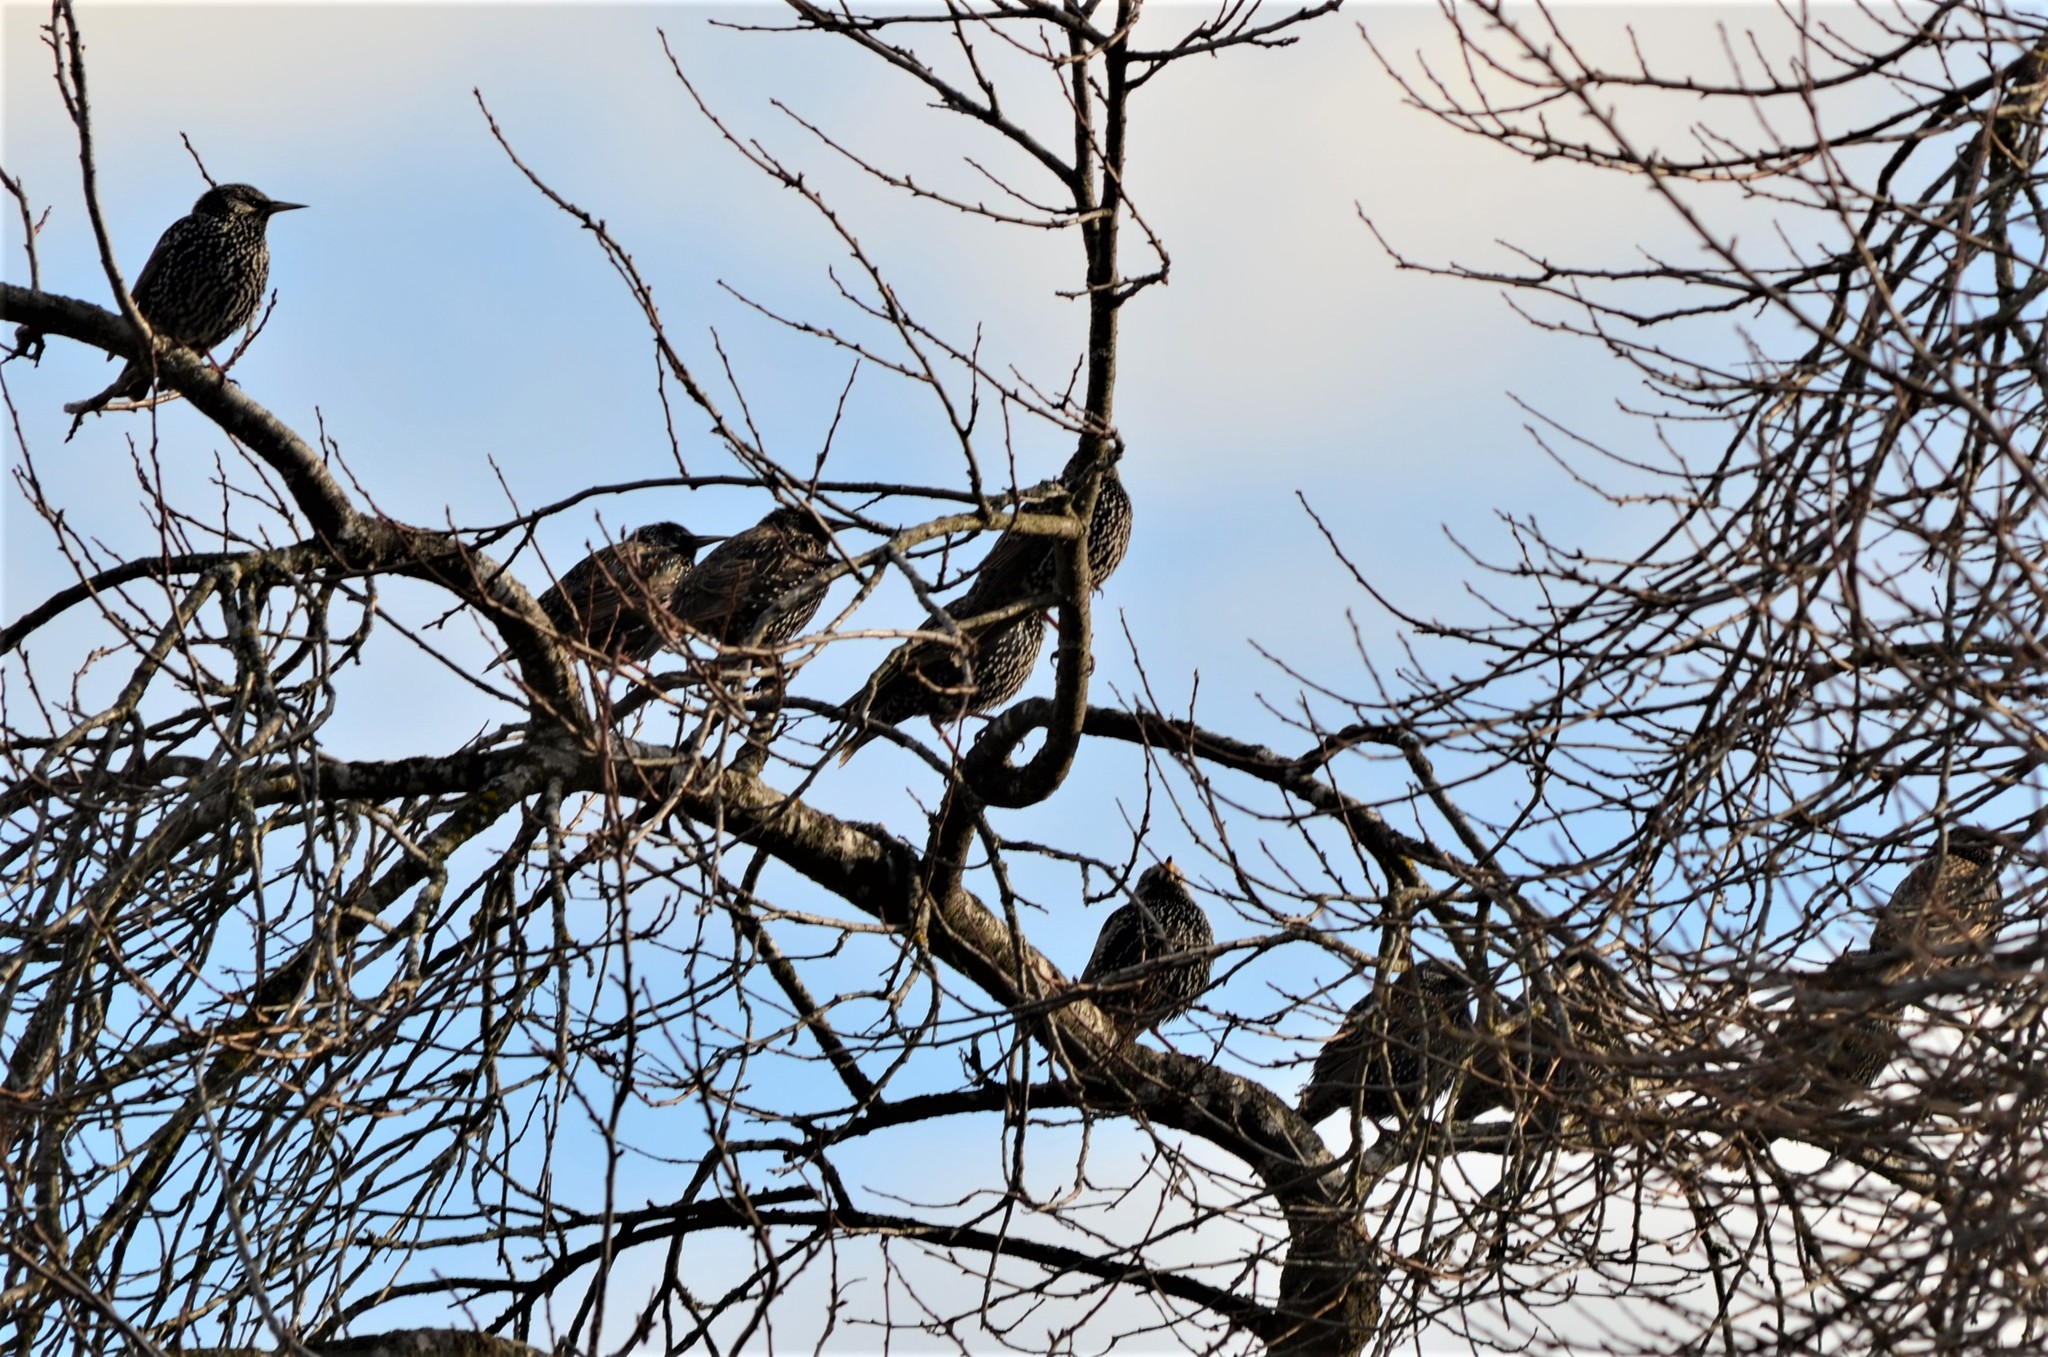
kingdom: Animalia
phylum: Chordata
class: Aves
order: Passeriformes
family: Sturnidae
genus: Sturnus
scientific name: Sturnus vulgaris
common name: Common starling
